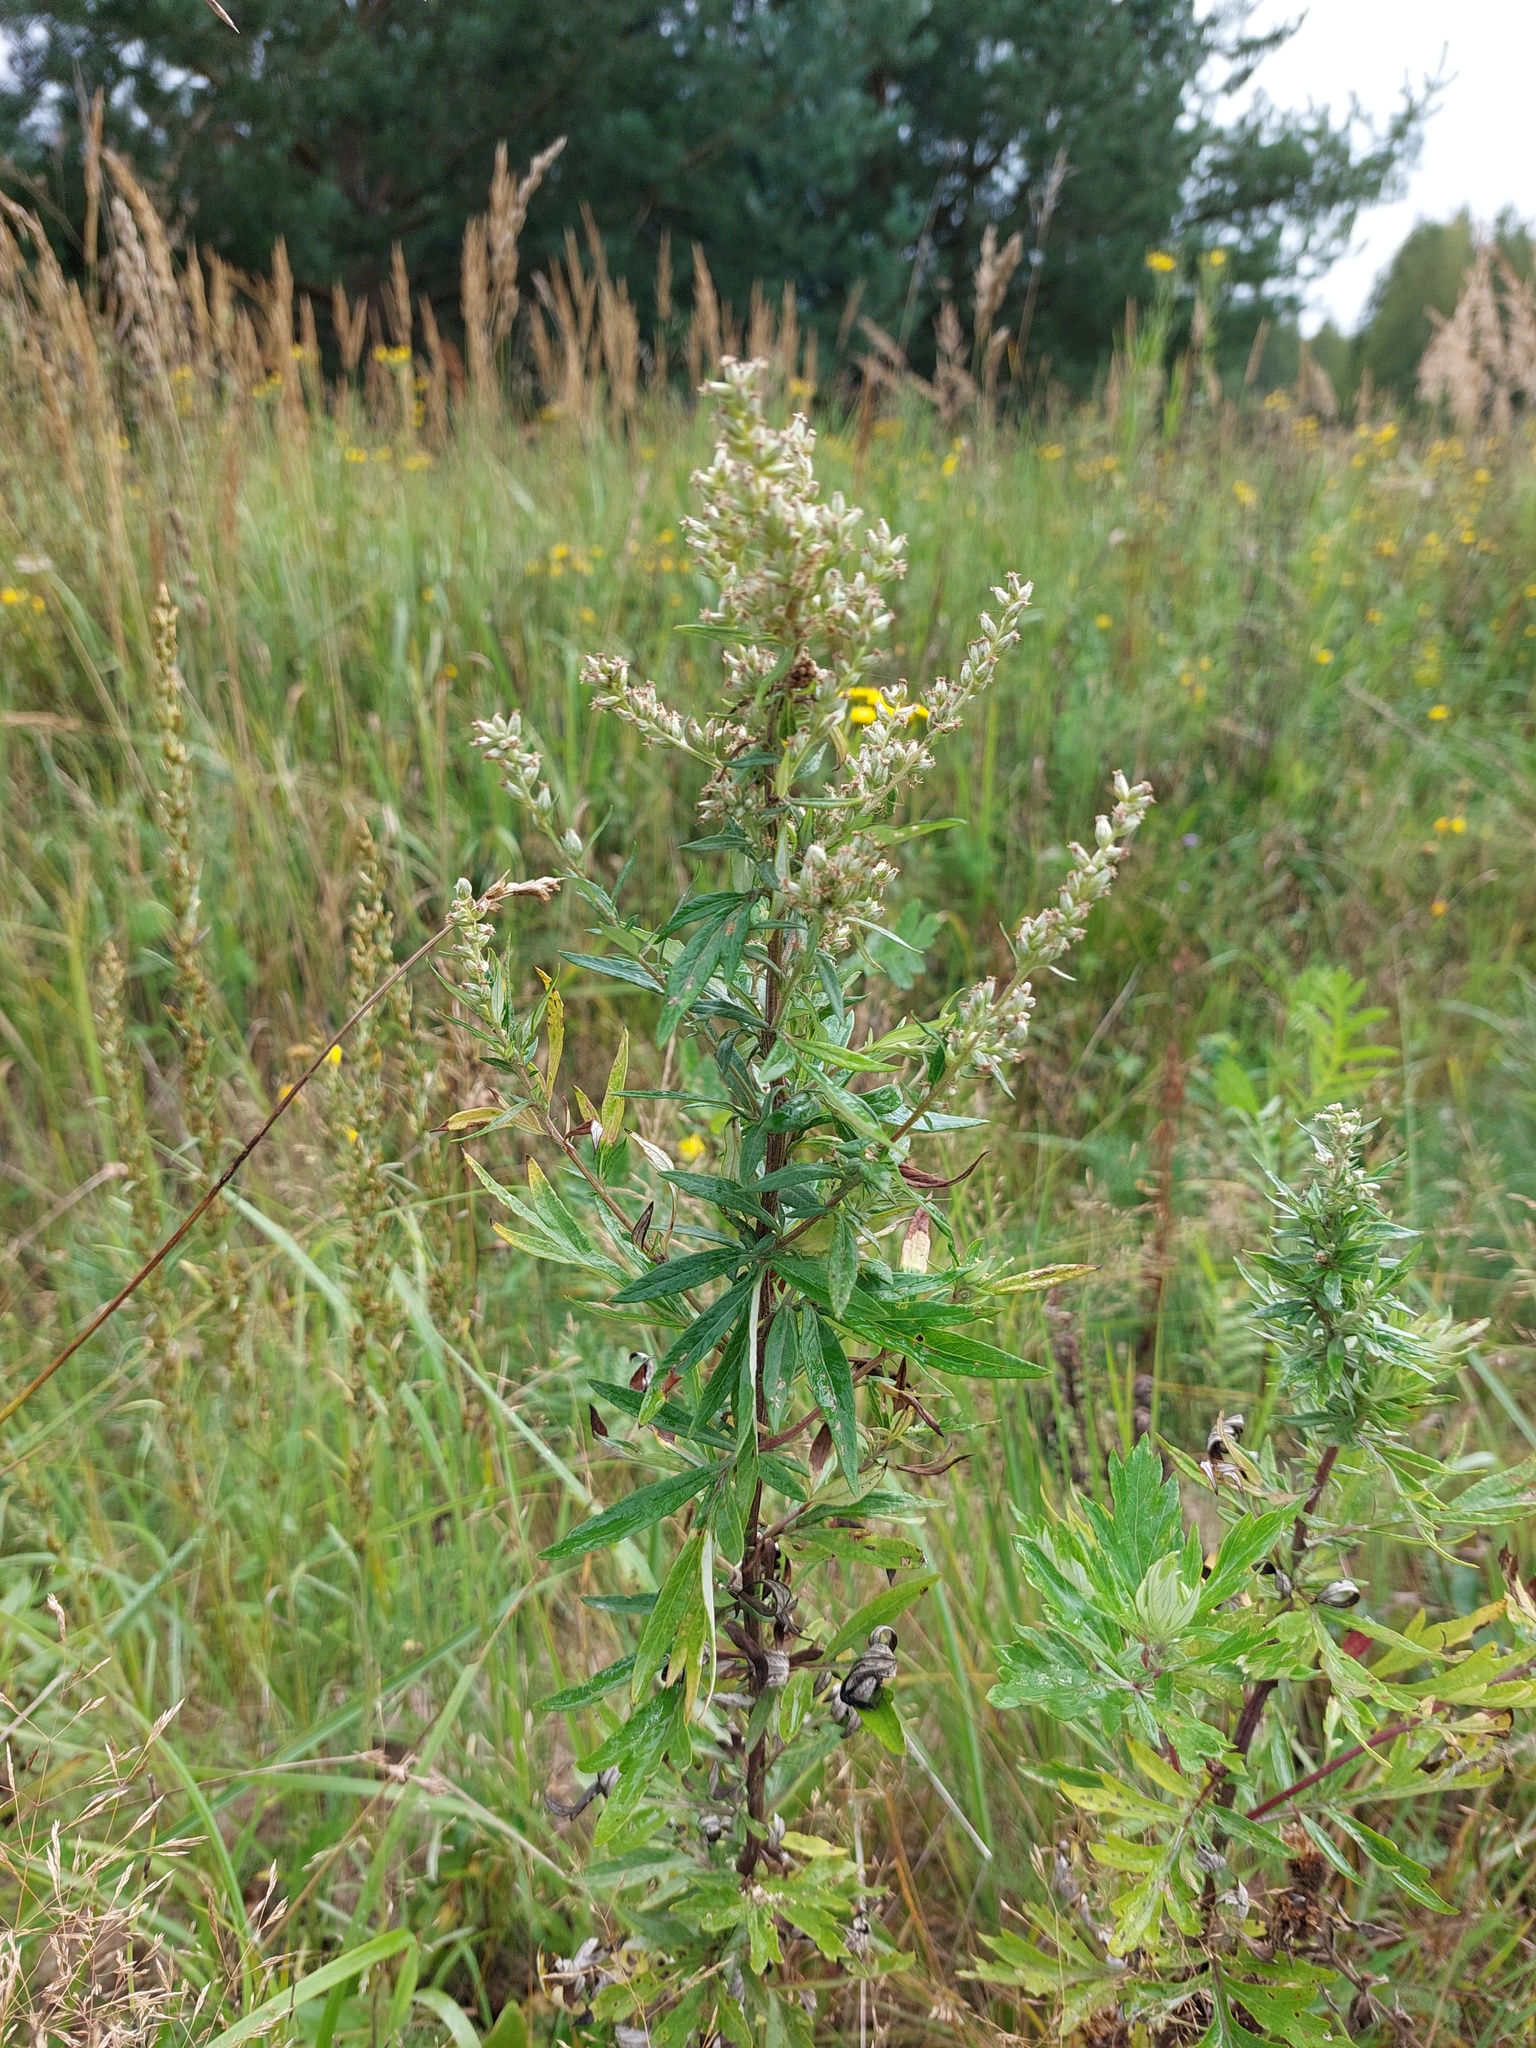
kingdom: Plantae
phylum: Tracheophyta
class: Magnoliopsida
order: Asterales
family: Asteraceae
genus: Artemisia
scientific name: Artemisia vulgaris
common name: Mugwort
